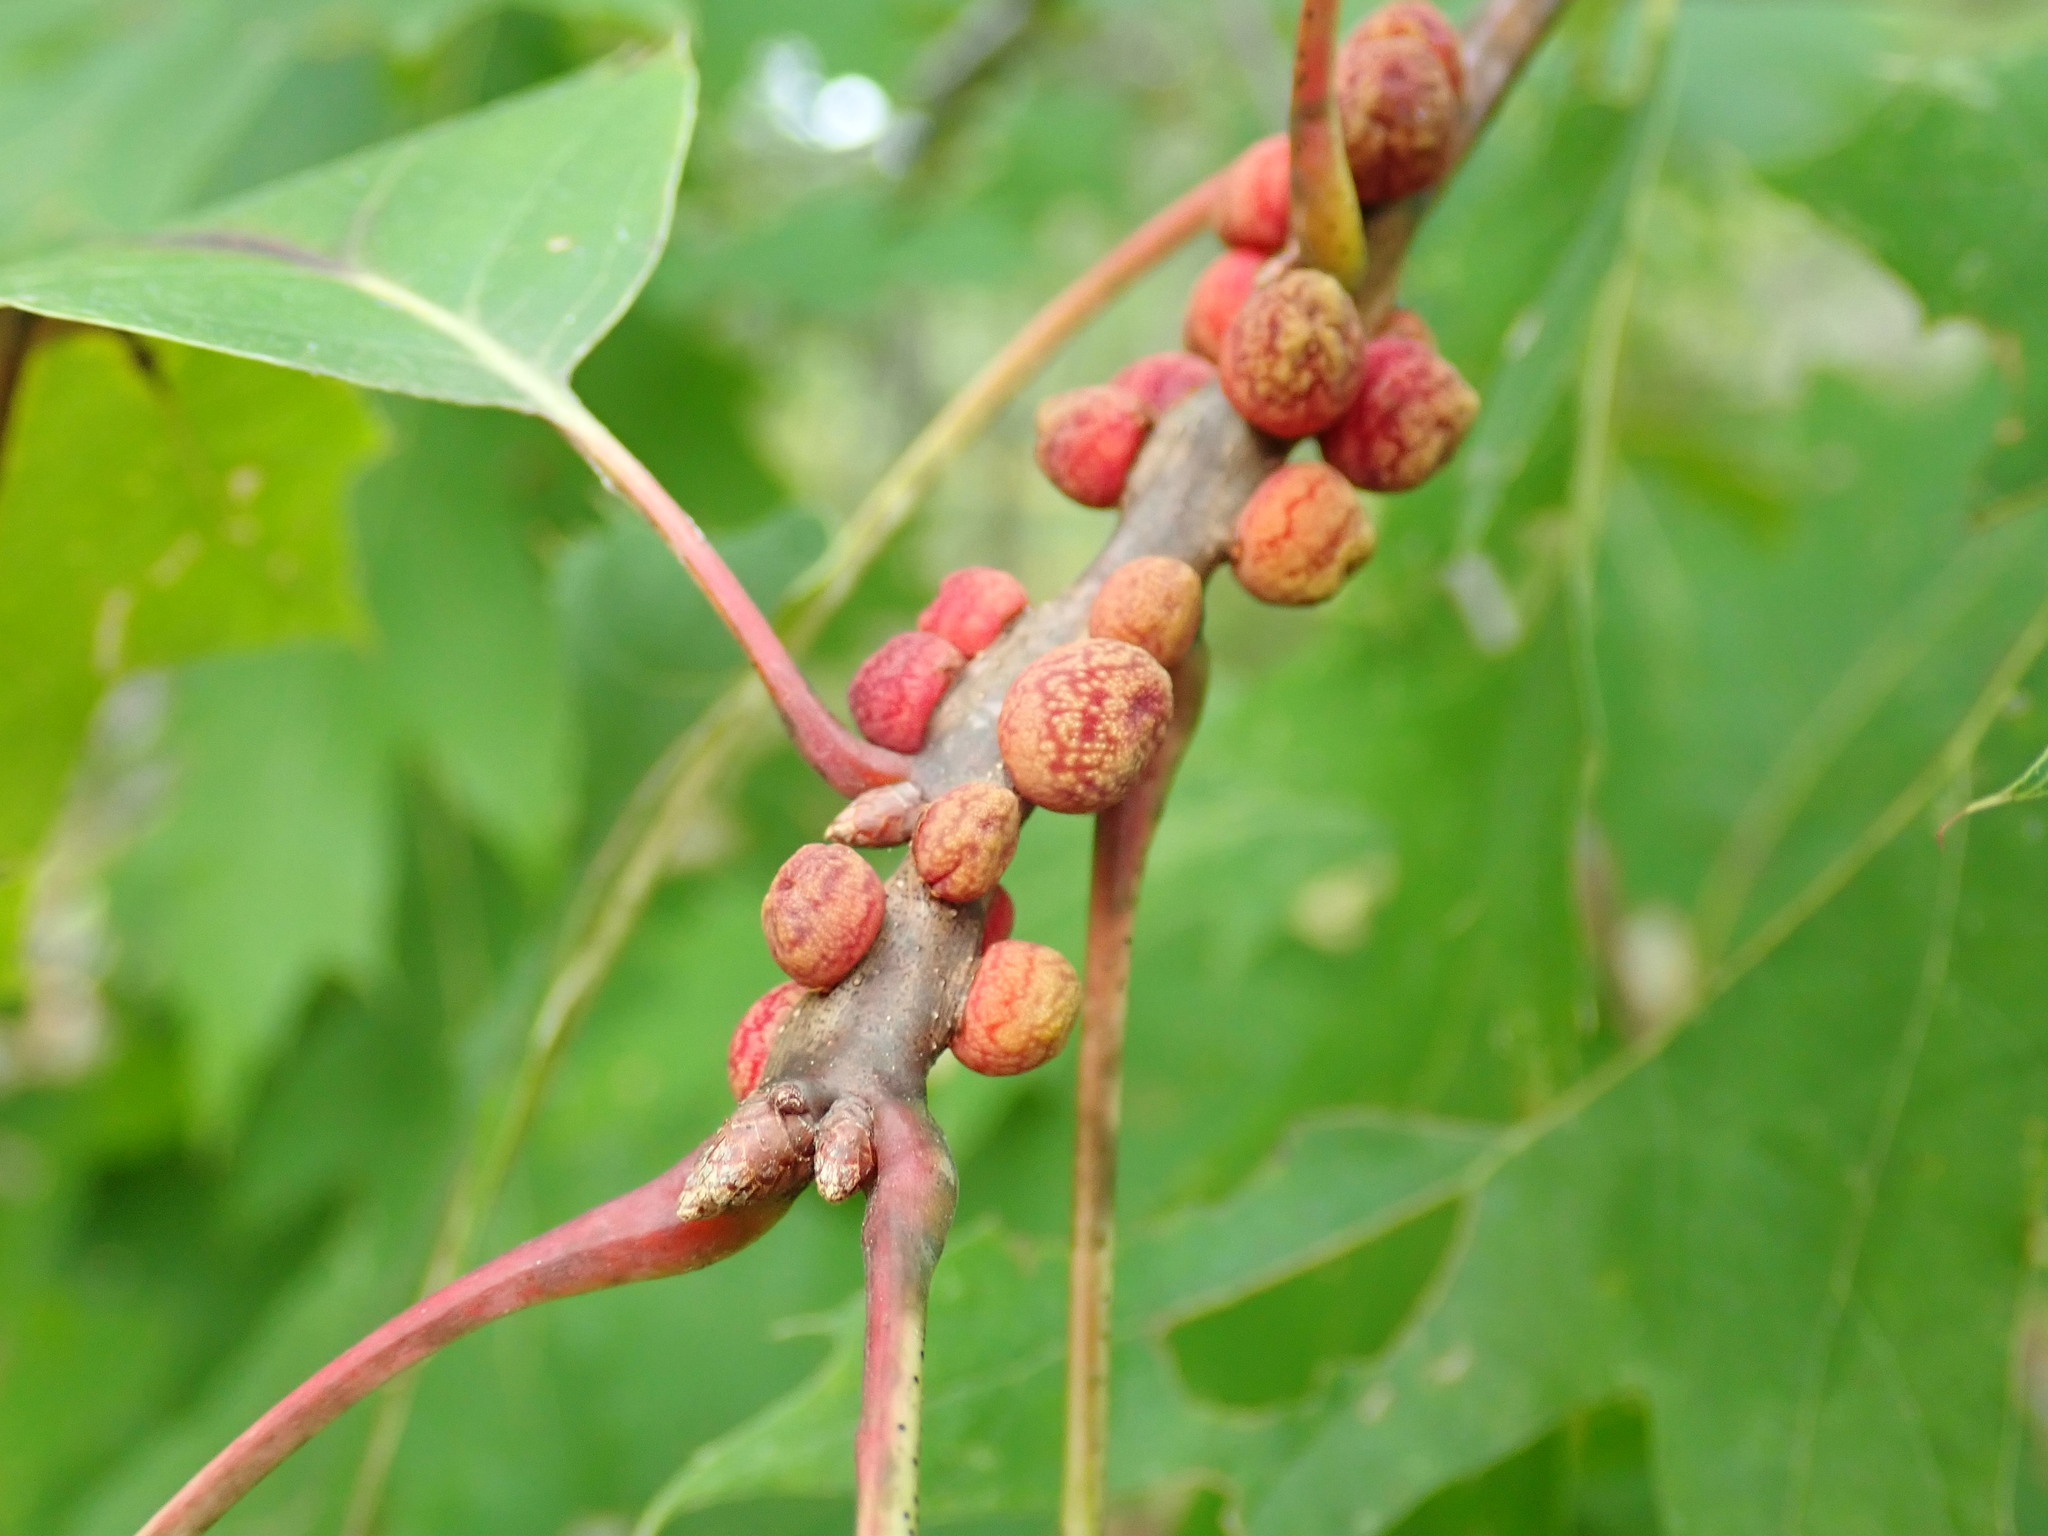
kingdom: Animalia
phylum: Arthropoda
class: Insecta
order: Hymenoptera
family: Cynipidae
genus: Kokkocynips
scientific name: Kokkocynips imbricariae
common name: Banded bullet gall wasp
